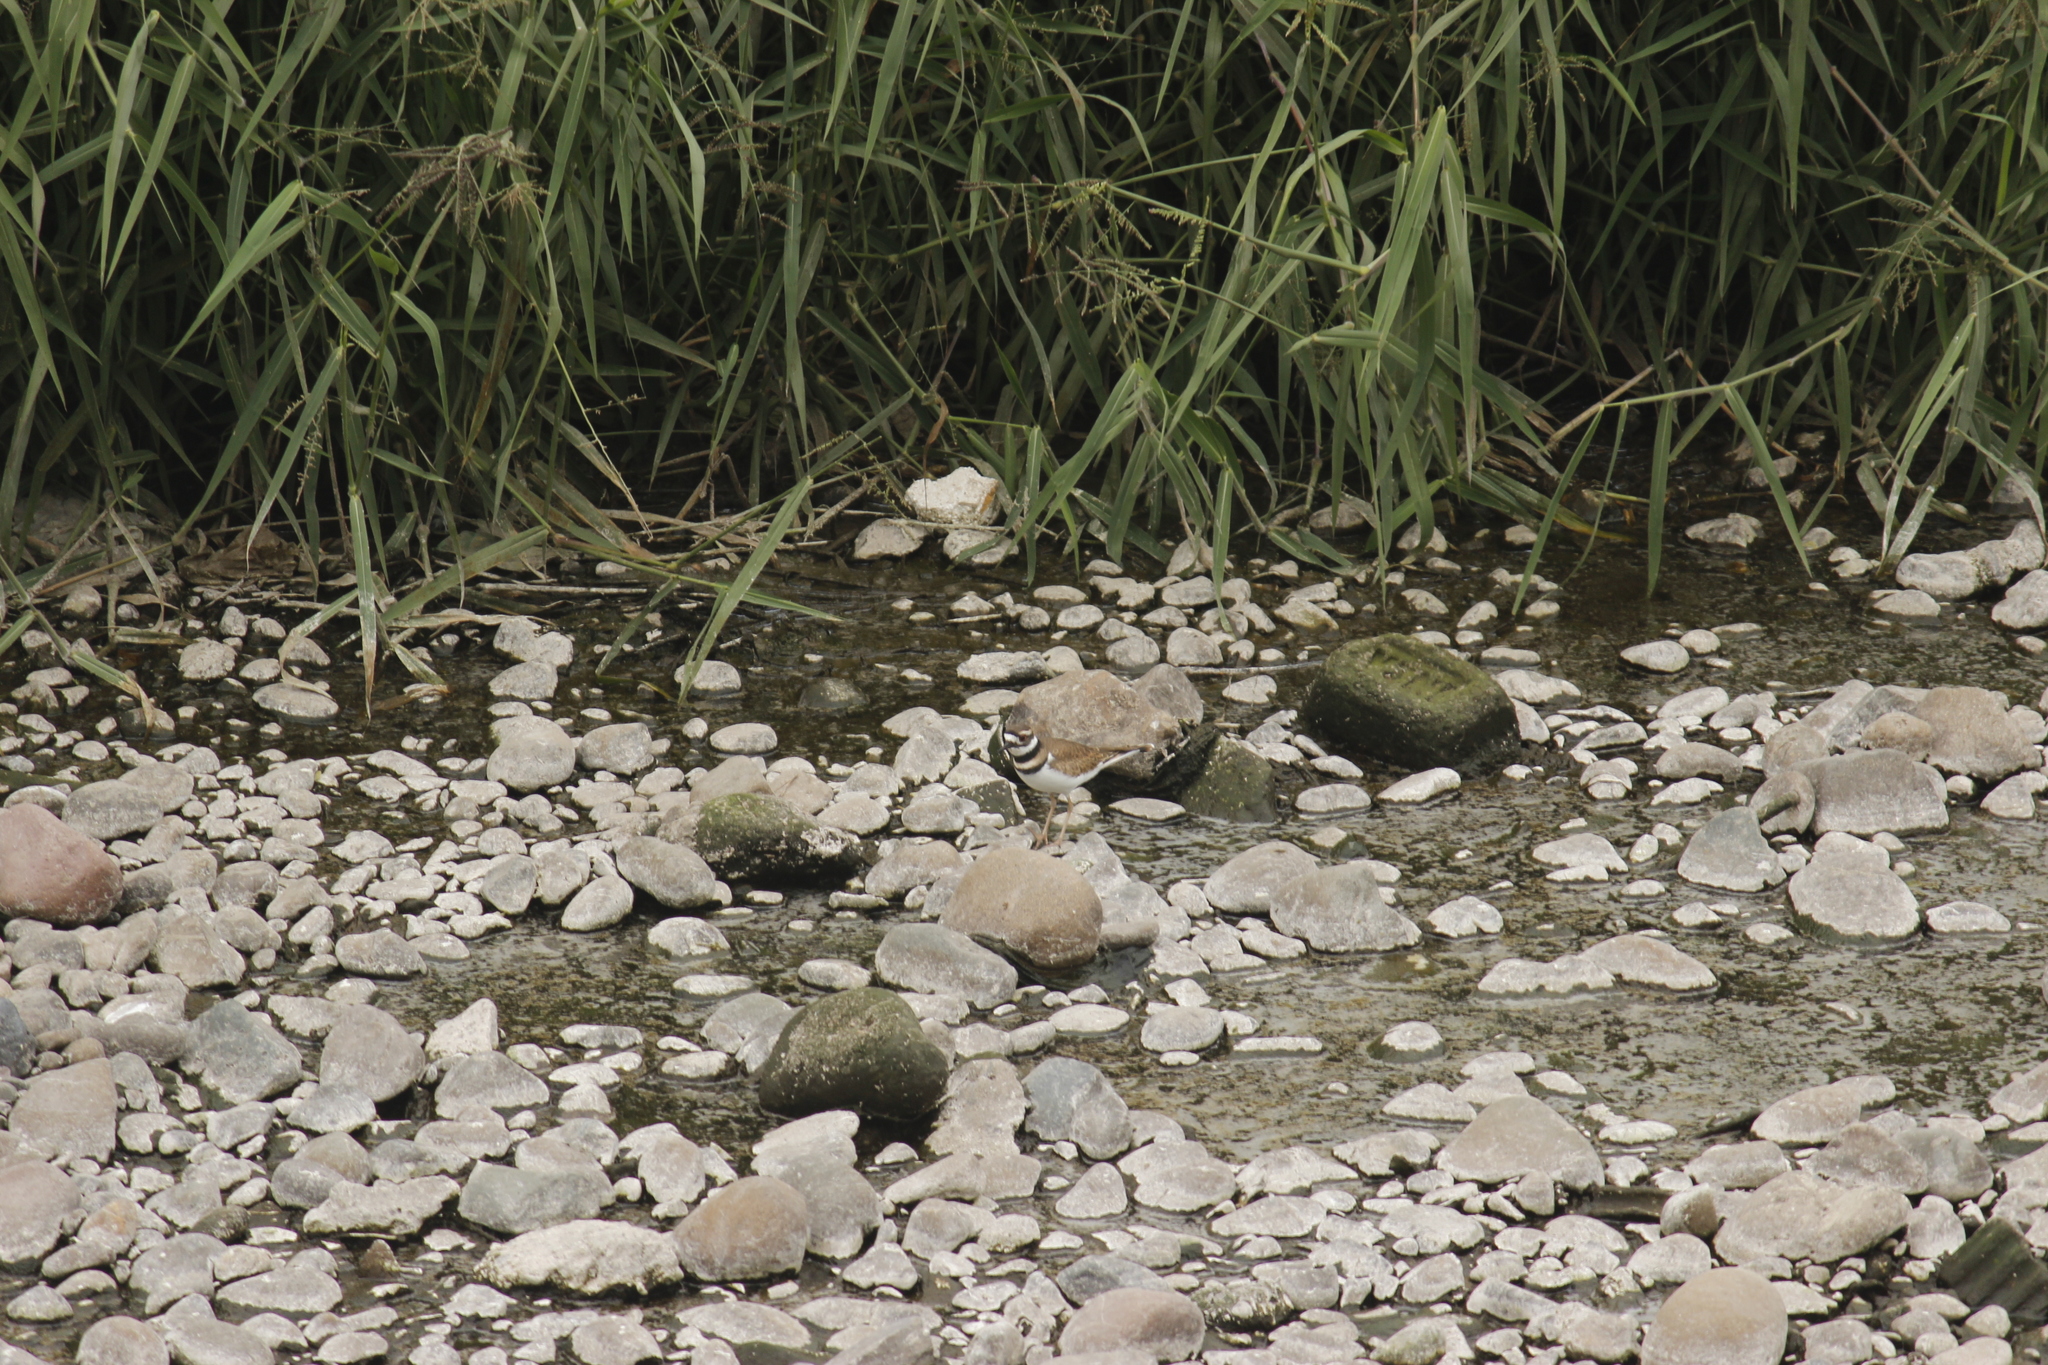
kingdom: Animalia
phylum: Chordata
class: Aves
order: Charadriiformes
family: Charadriidae
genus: Charadrius
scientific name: Charadrius vociferus
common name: Killdeer
